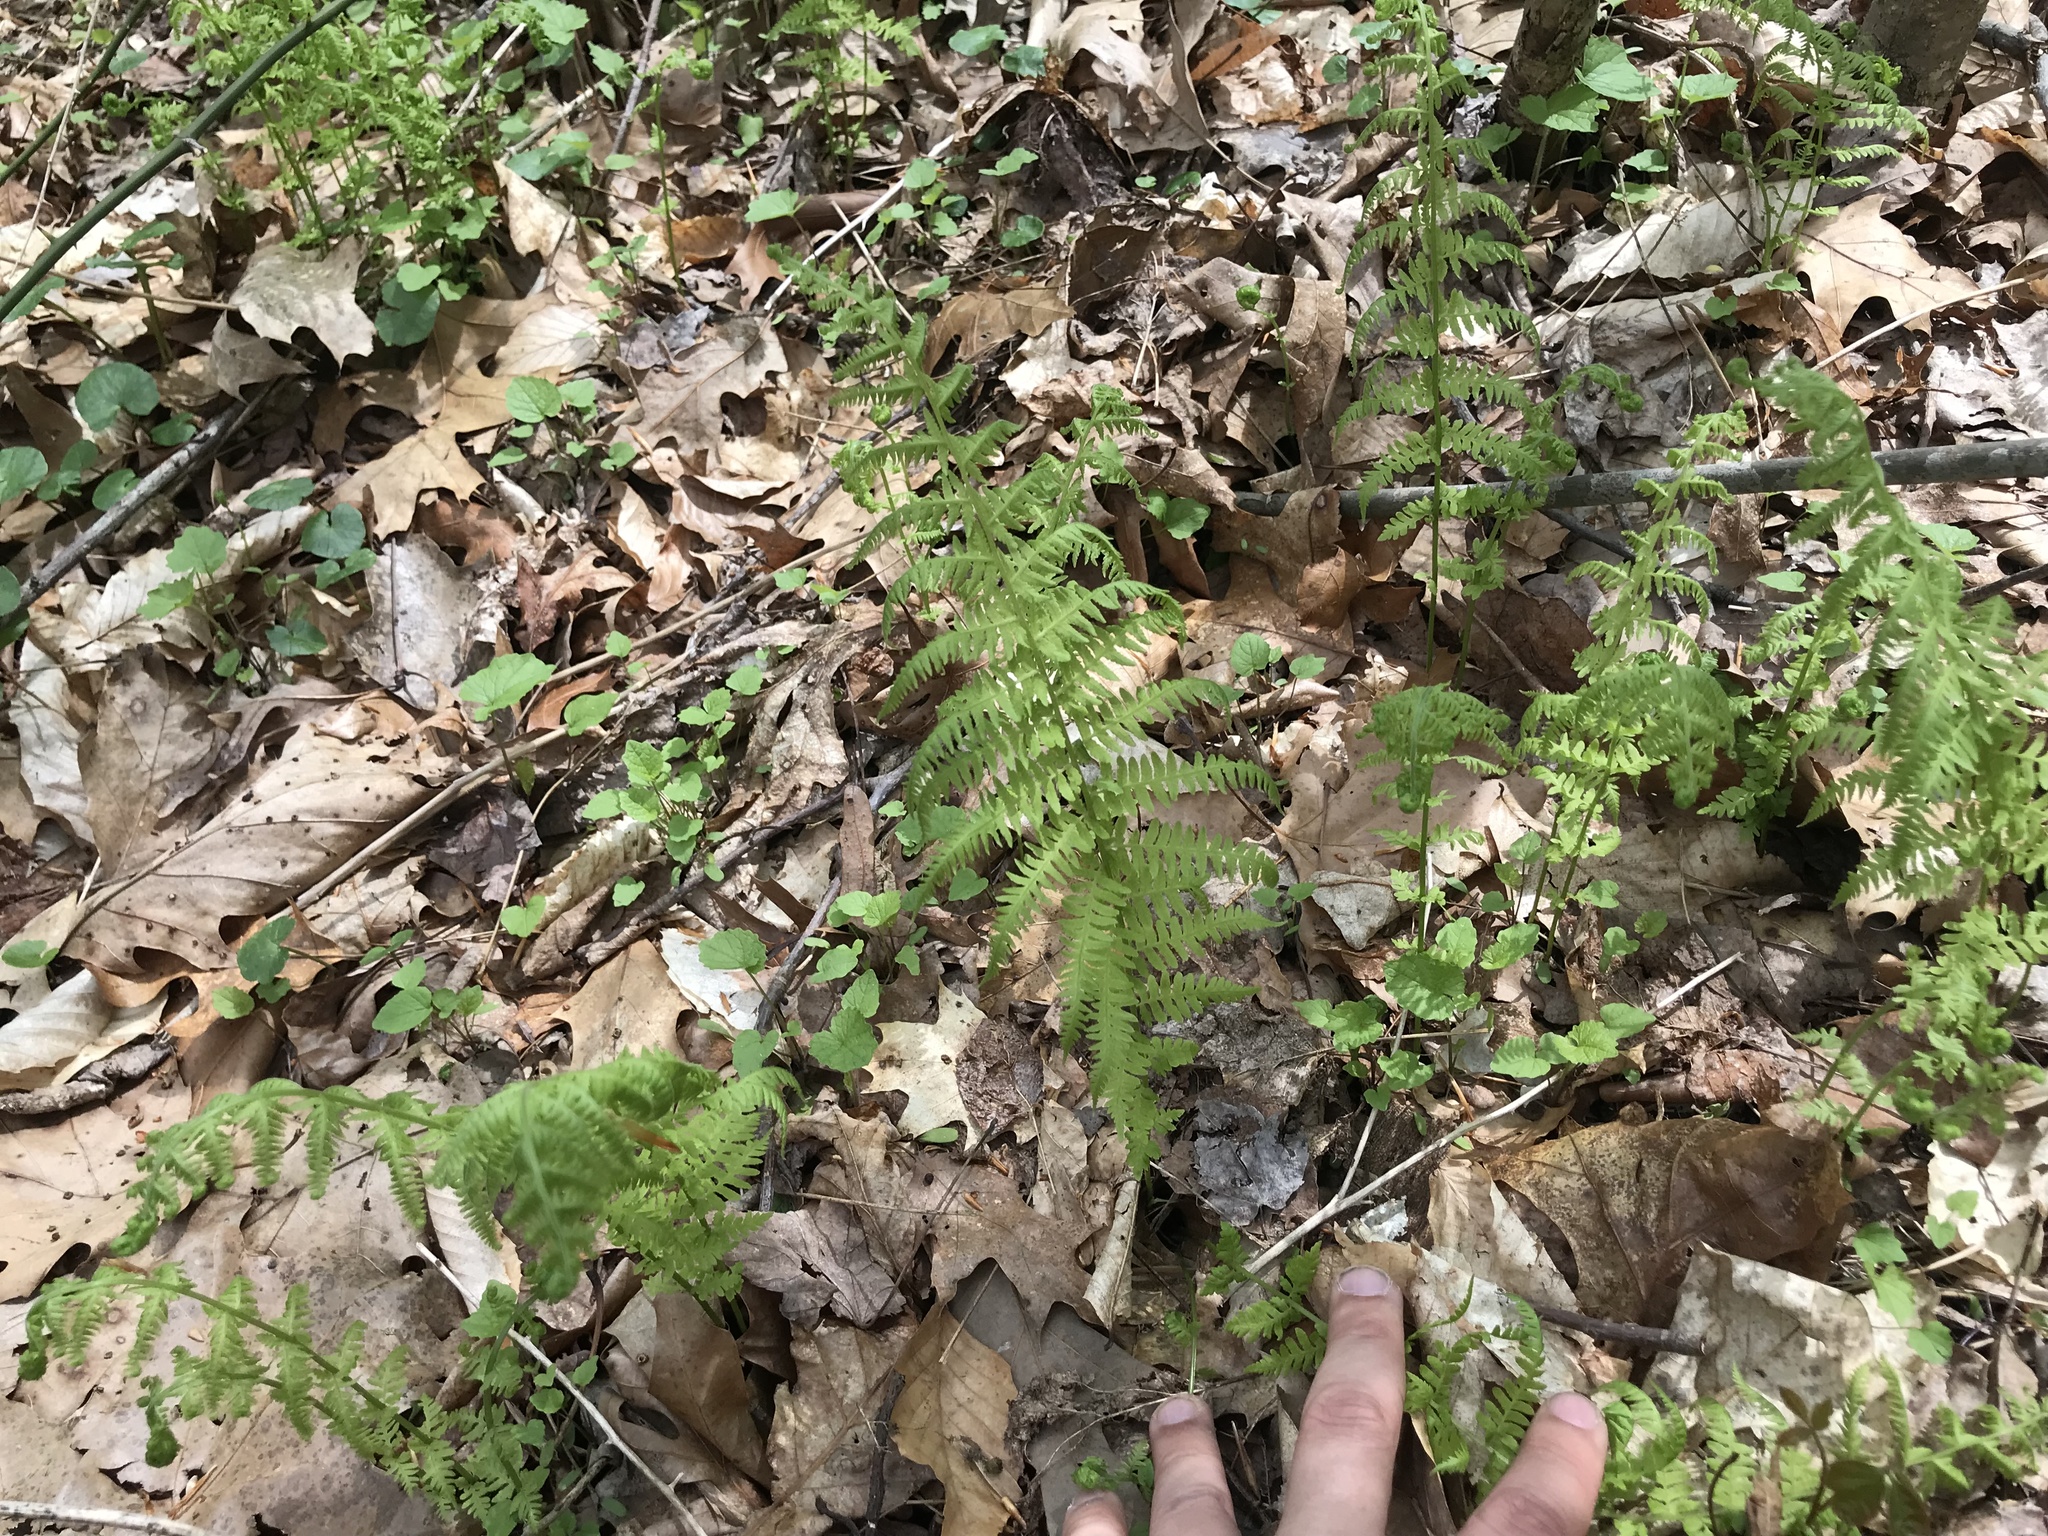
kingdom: Plantae
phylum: Tracheophyta
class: Polypodiopsida
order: Polypodiales
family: Thelypteridaceae
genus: Amauropelta
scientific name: Amauropelta noveboracensis
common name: New york fern
